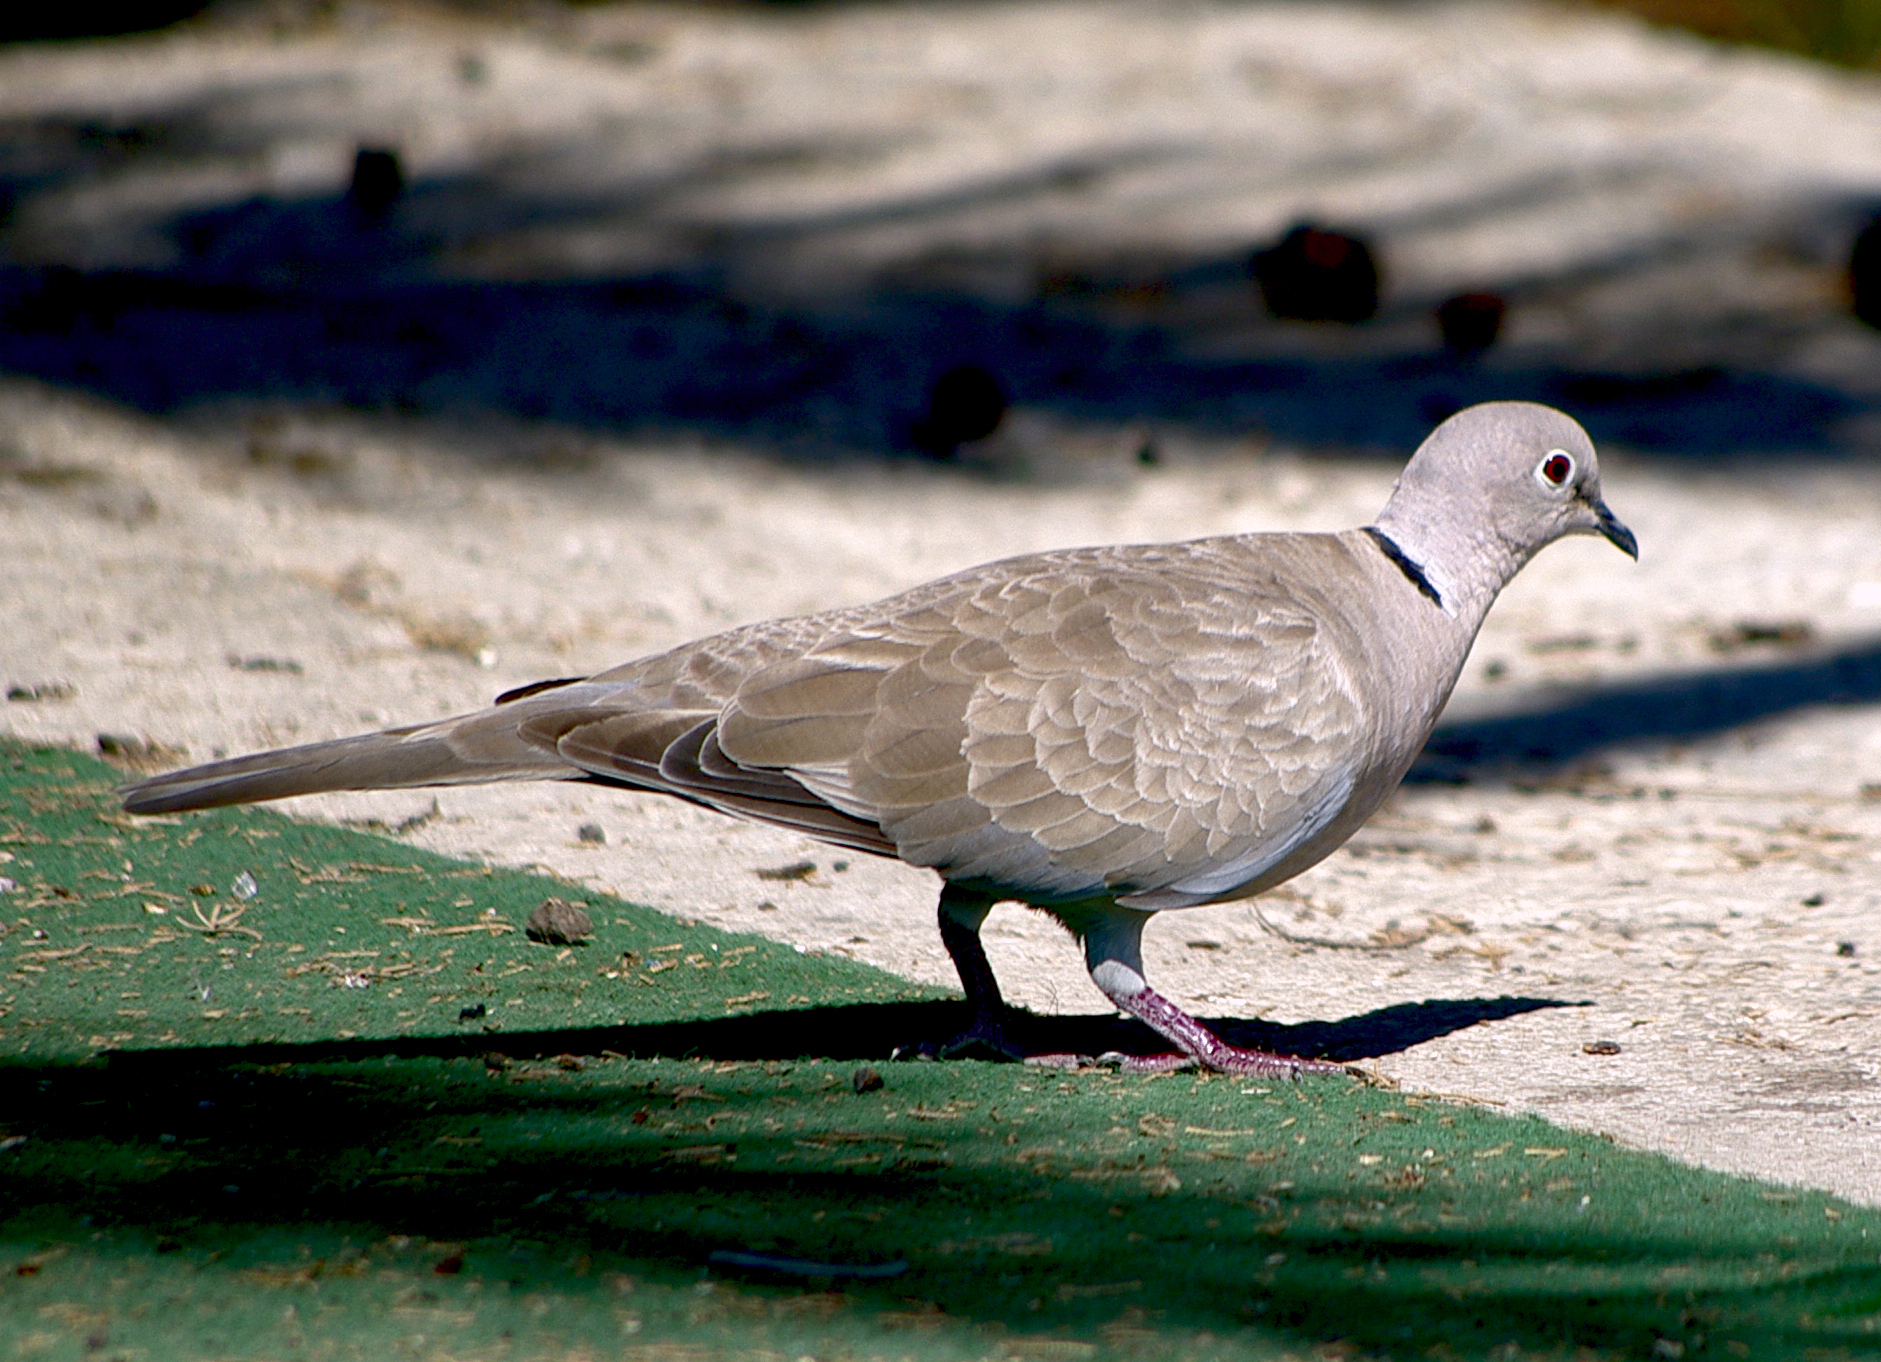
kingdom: Animalia
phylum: Chordata
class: Aves
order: Columbiformes
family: Columbidae
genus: Streptopelia
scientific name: Streptopelia decaocto
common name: Eurasian collared dove
